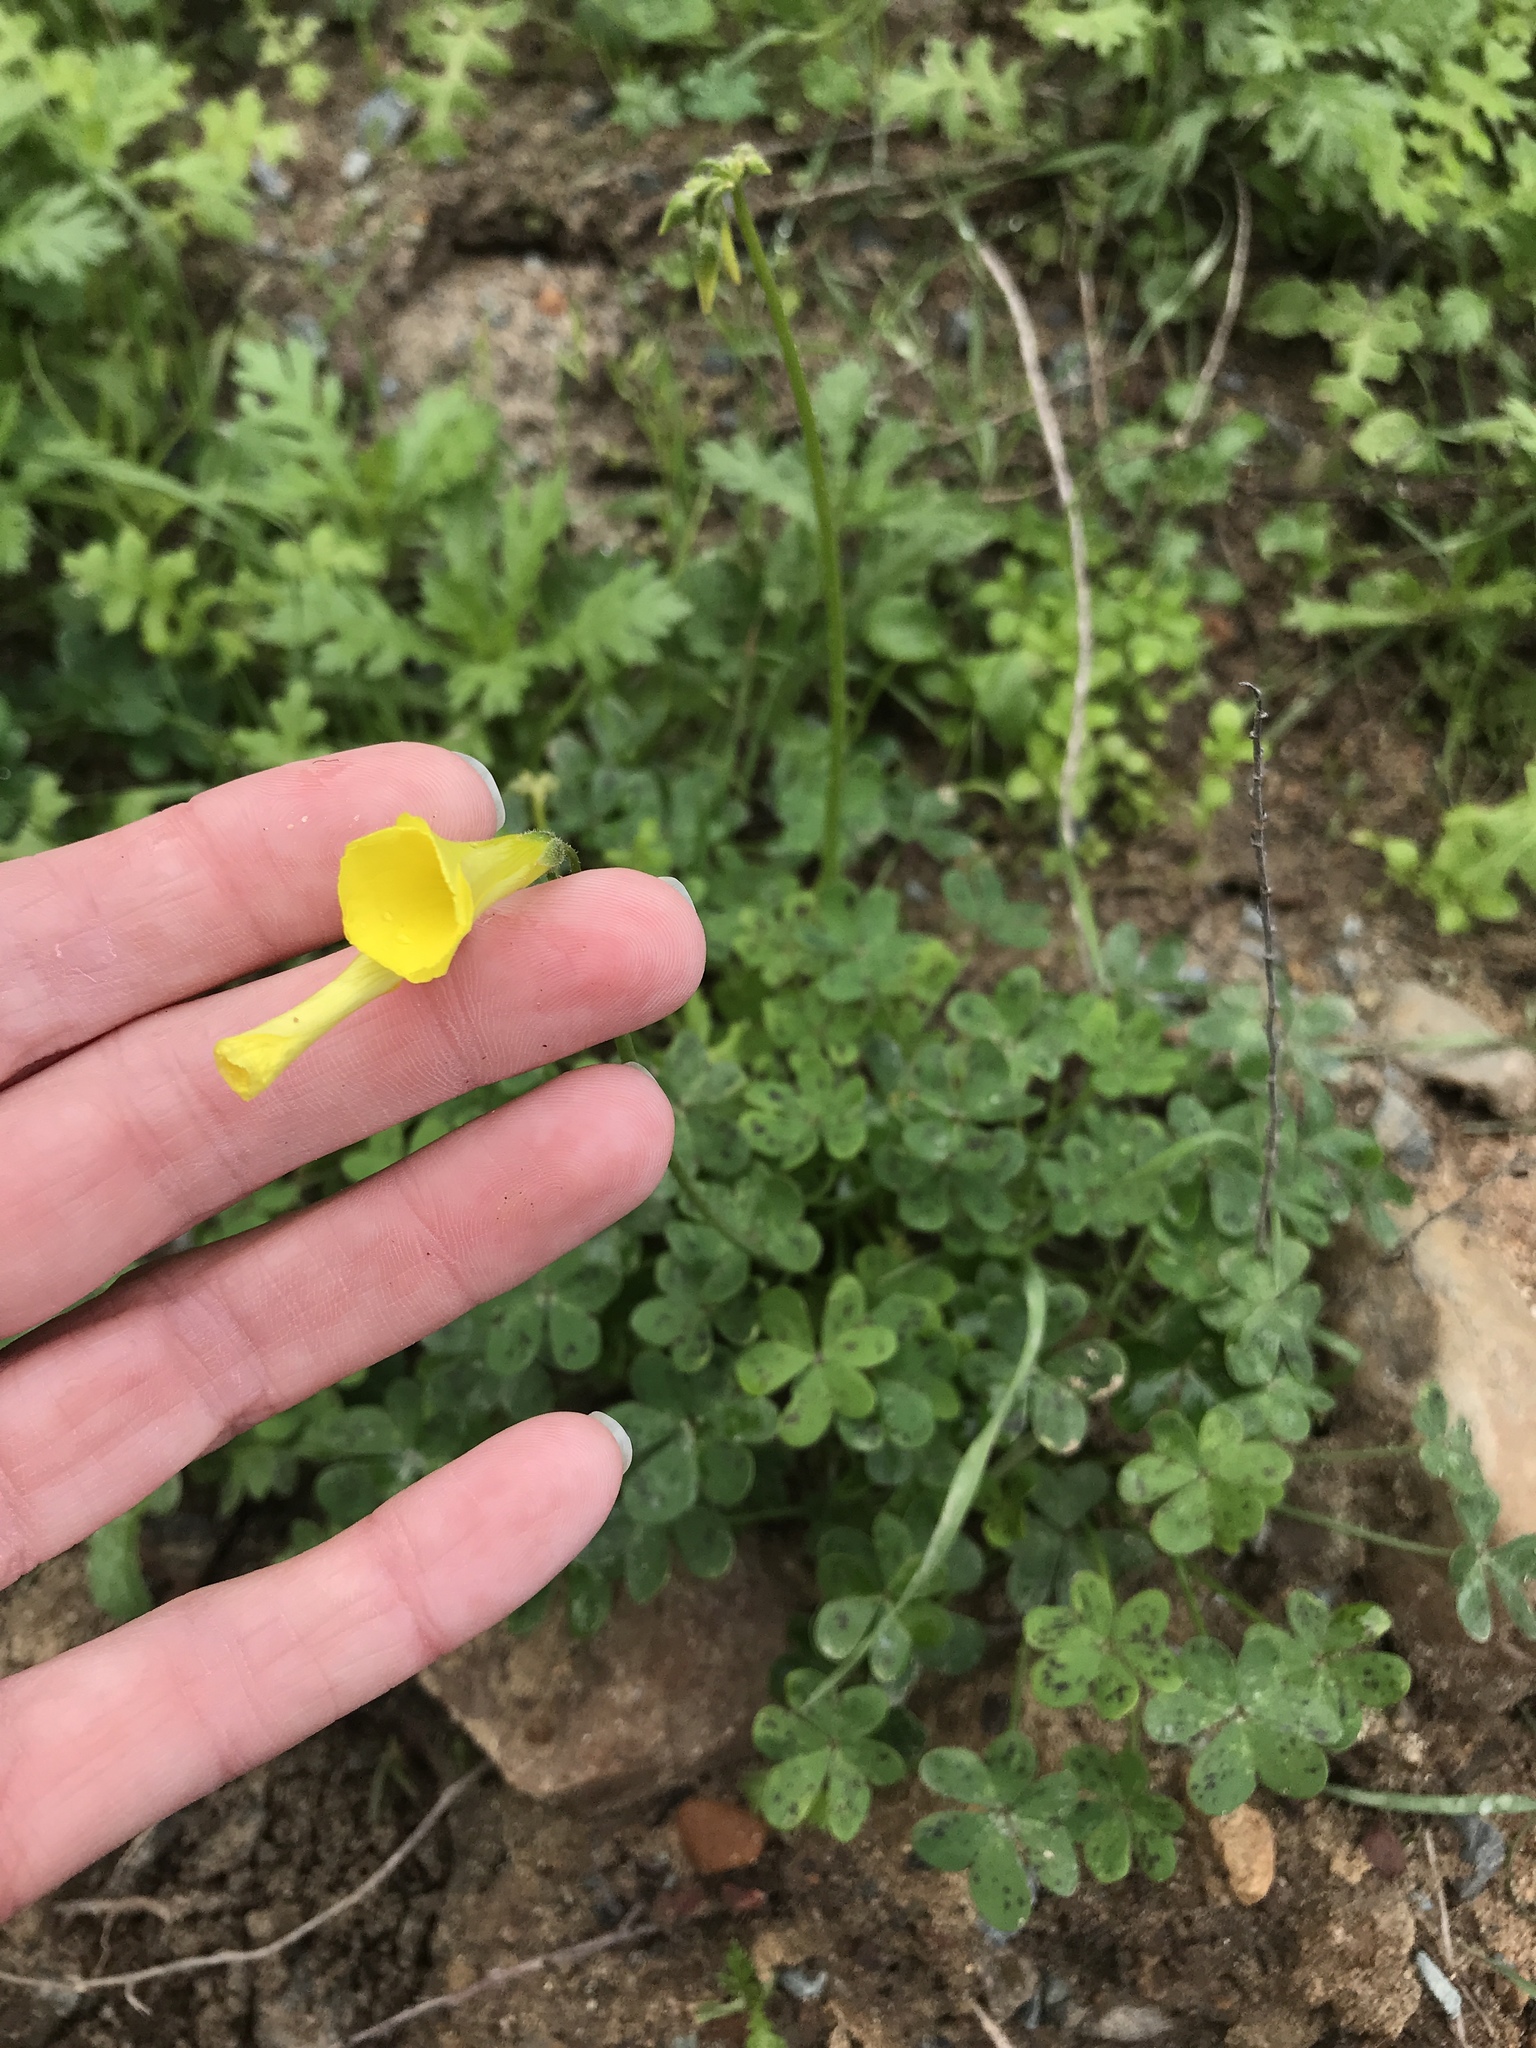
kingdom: Plantae
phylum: Tracheophyta
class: Magnoliopsida
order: Oxalidales
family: Oxalidaceae
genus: Oxalis
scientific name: Oxalis pes-caprae
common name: Bermuda-buttercup
